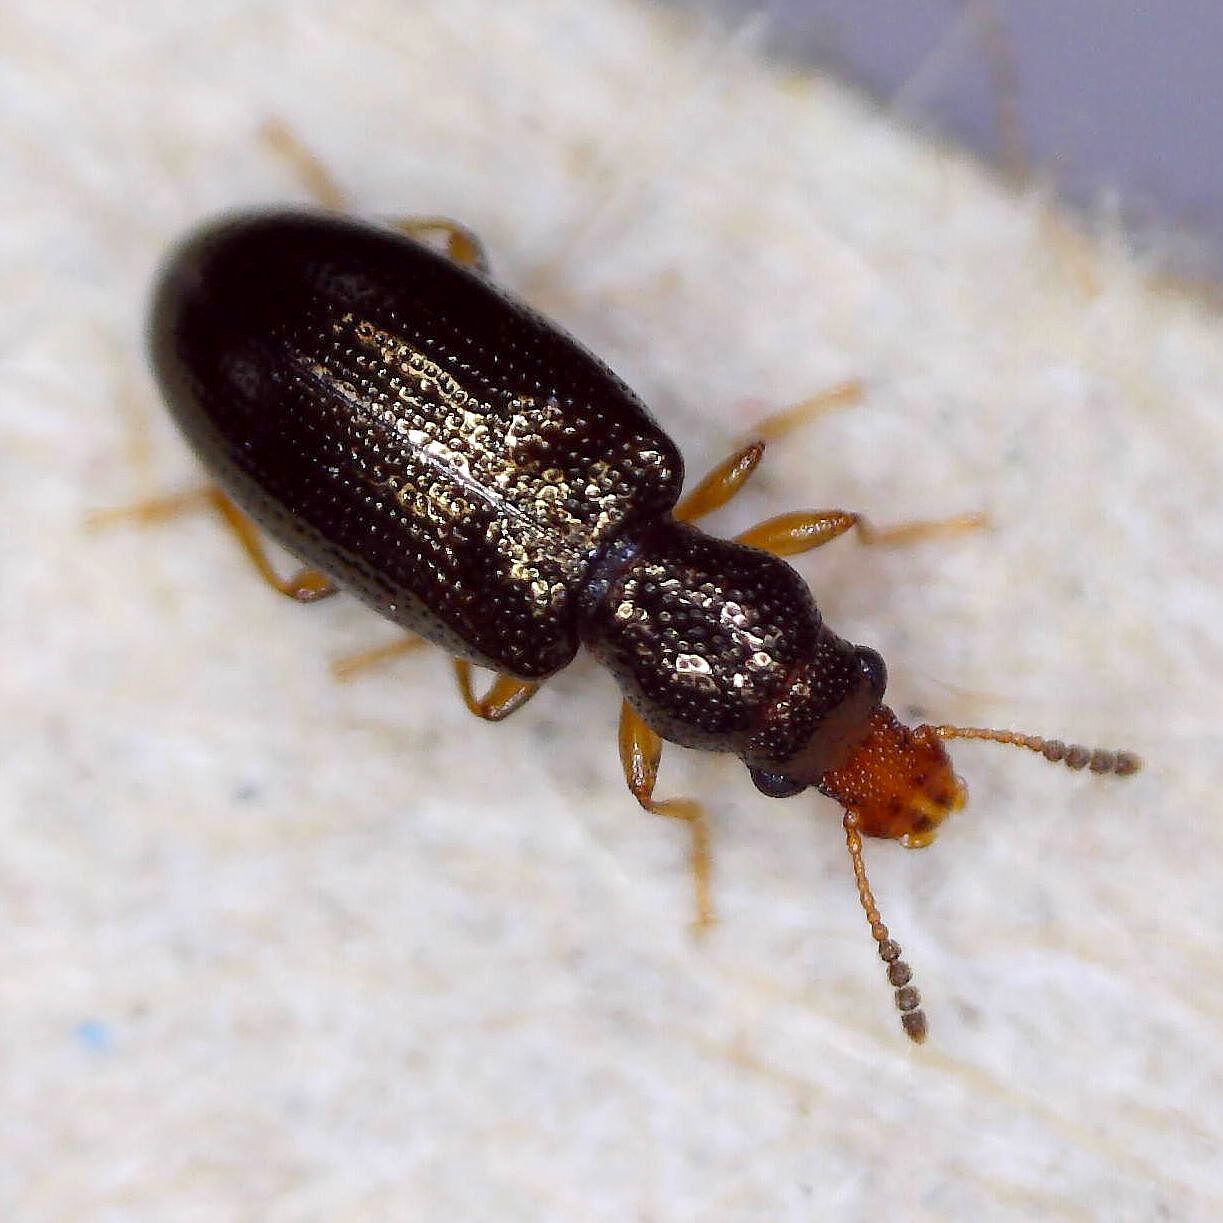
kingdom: Animalia
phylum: Arthropoda
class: Insecta
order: Coleoptera
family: Salpingidae
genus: Salpingus
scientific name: Salpingus planirostris
